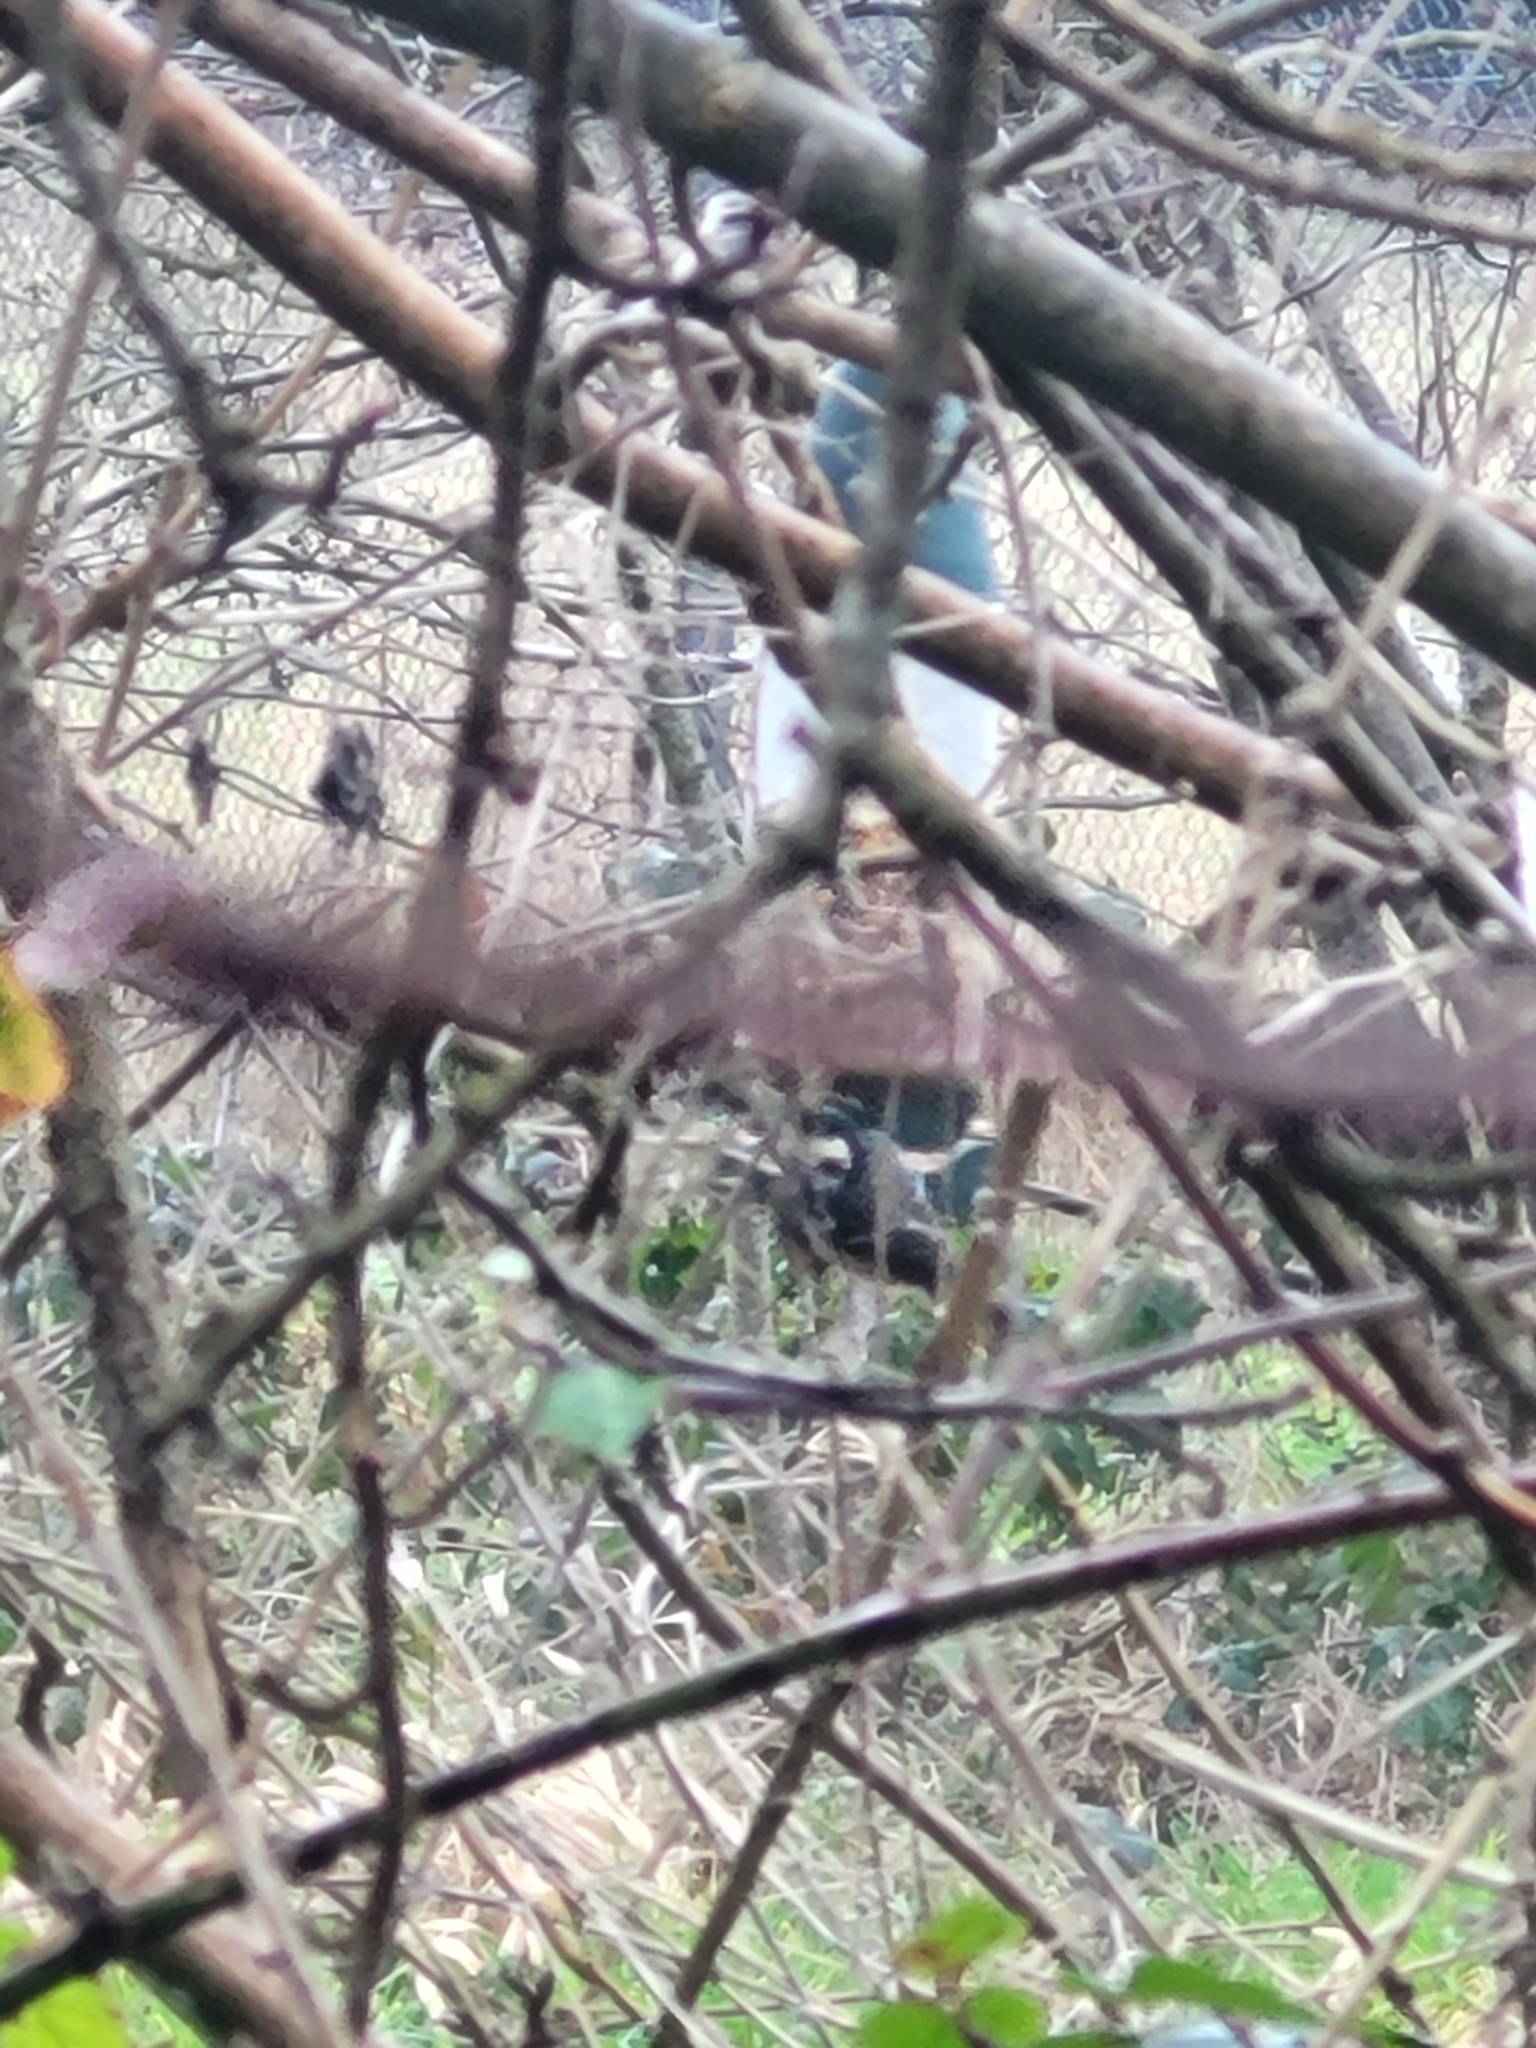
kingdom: Animalia
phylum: Chordata
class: Aves
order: Passeriformes
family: Paridae
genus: Periparus
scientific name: Periparus ater
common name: Coal tit
